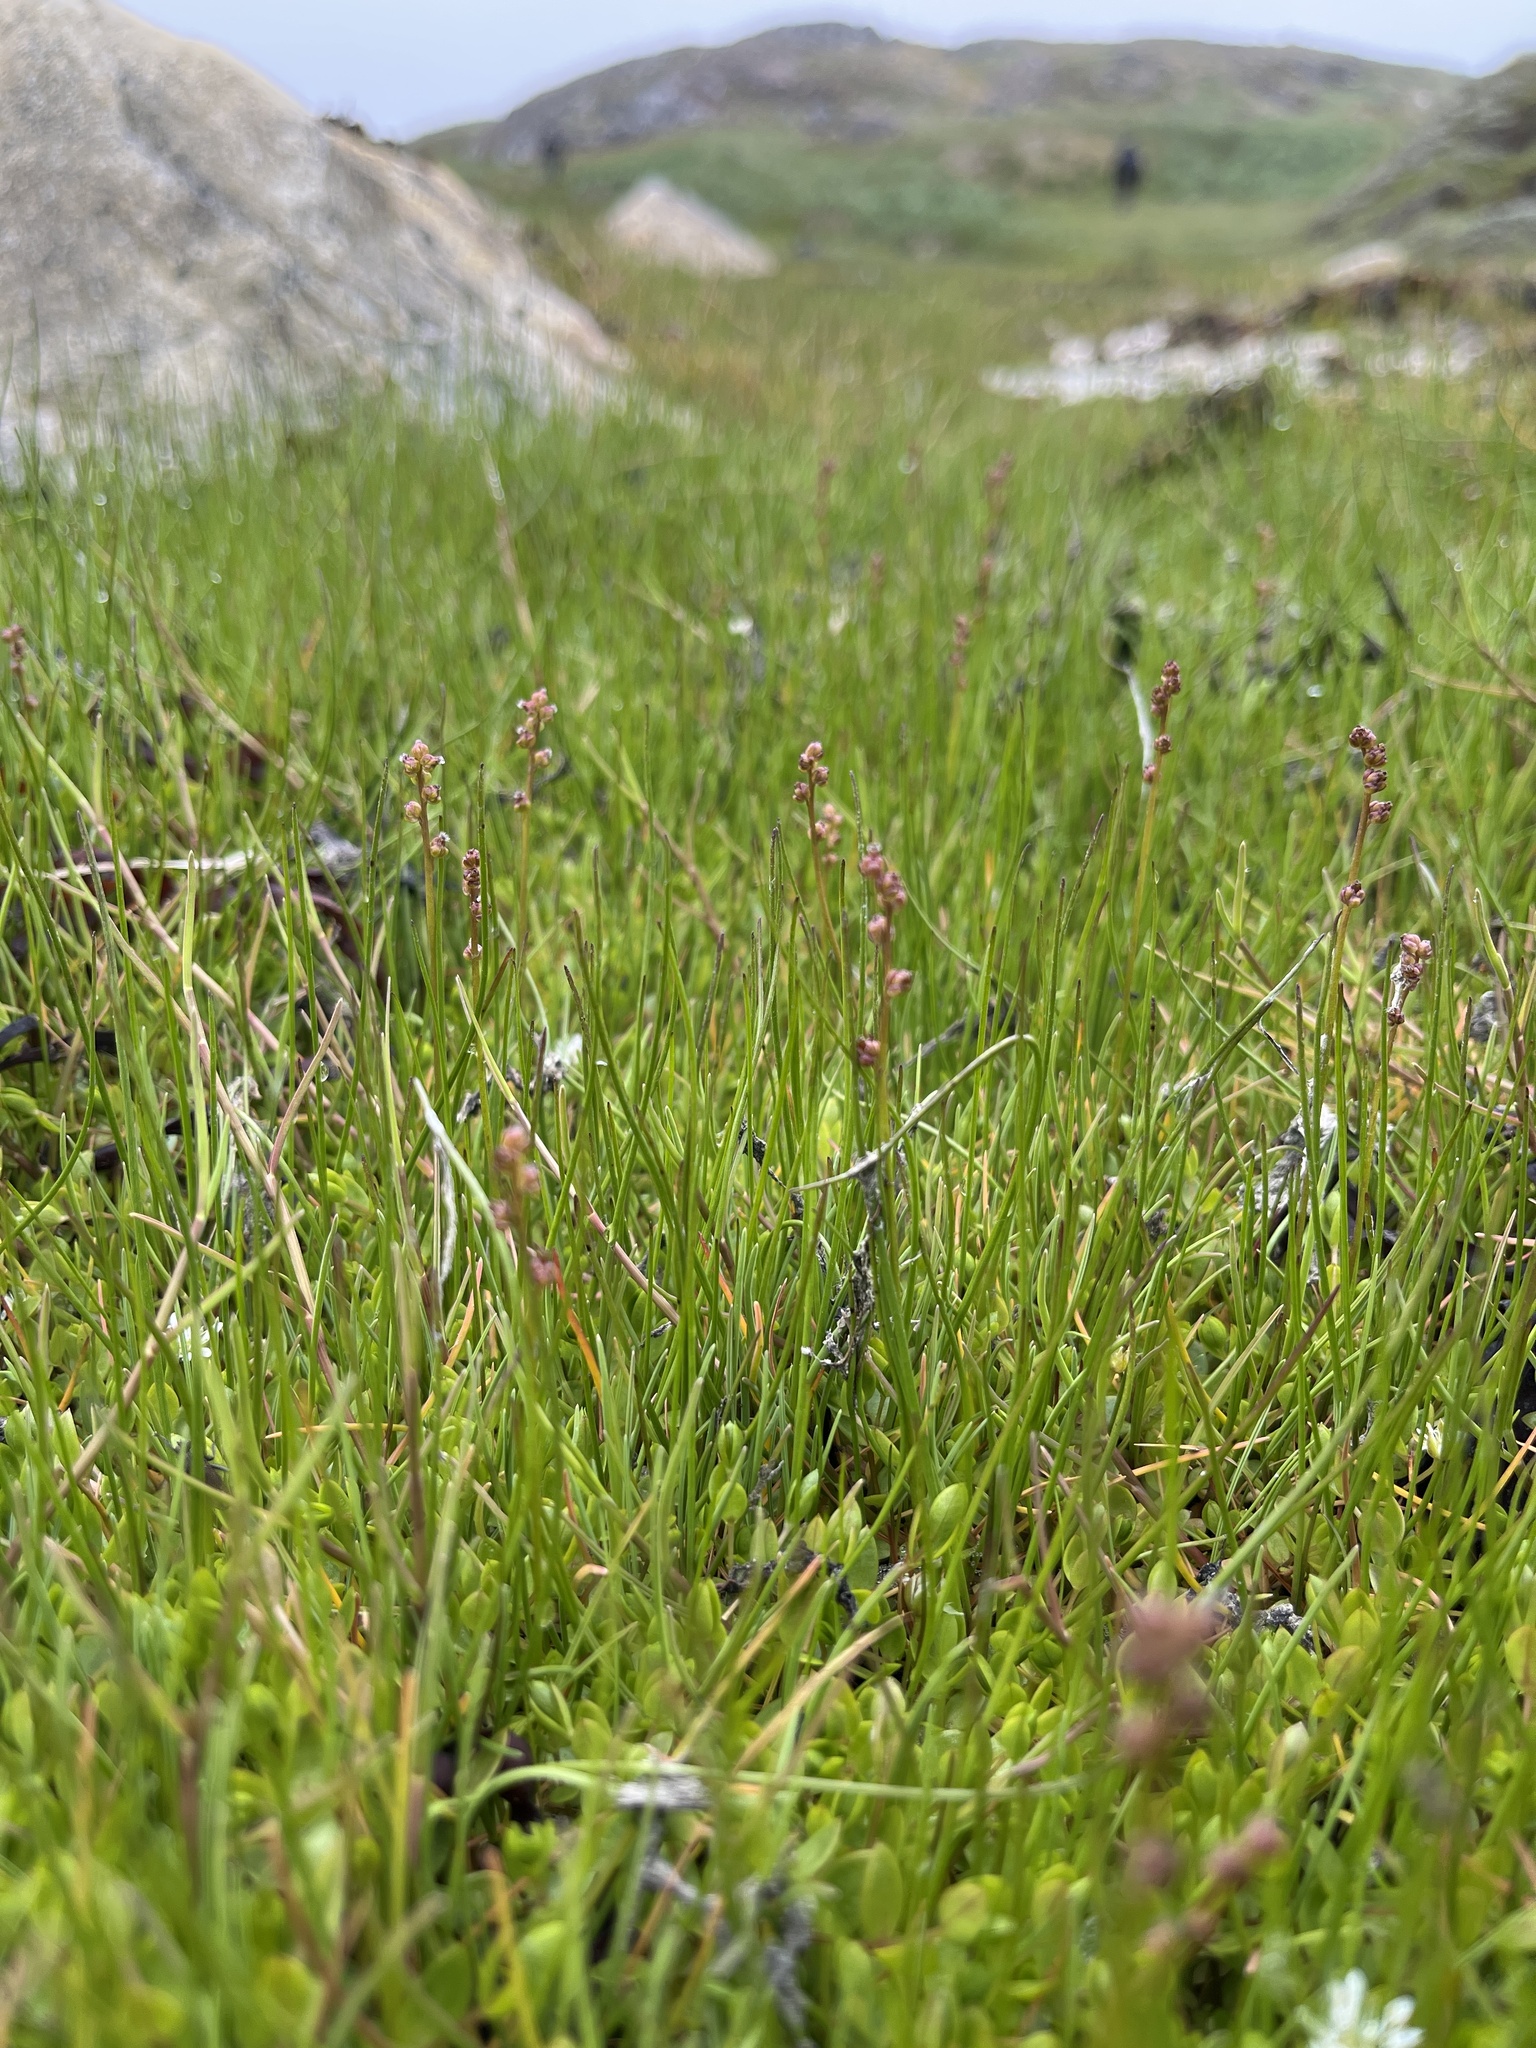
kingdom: Plantae
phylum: Tracheophyta
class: Liliopsida
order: Alismatales
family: Juncaginaceae
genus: Triglochin
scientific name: Triglochin palustris
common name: Marsh arrowgrass
